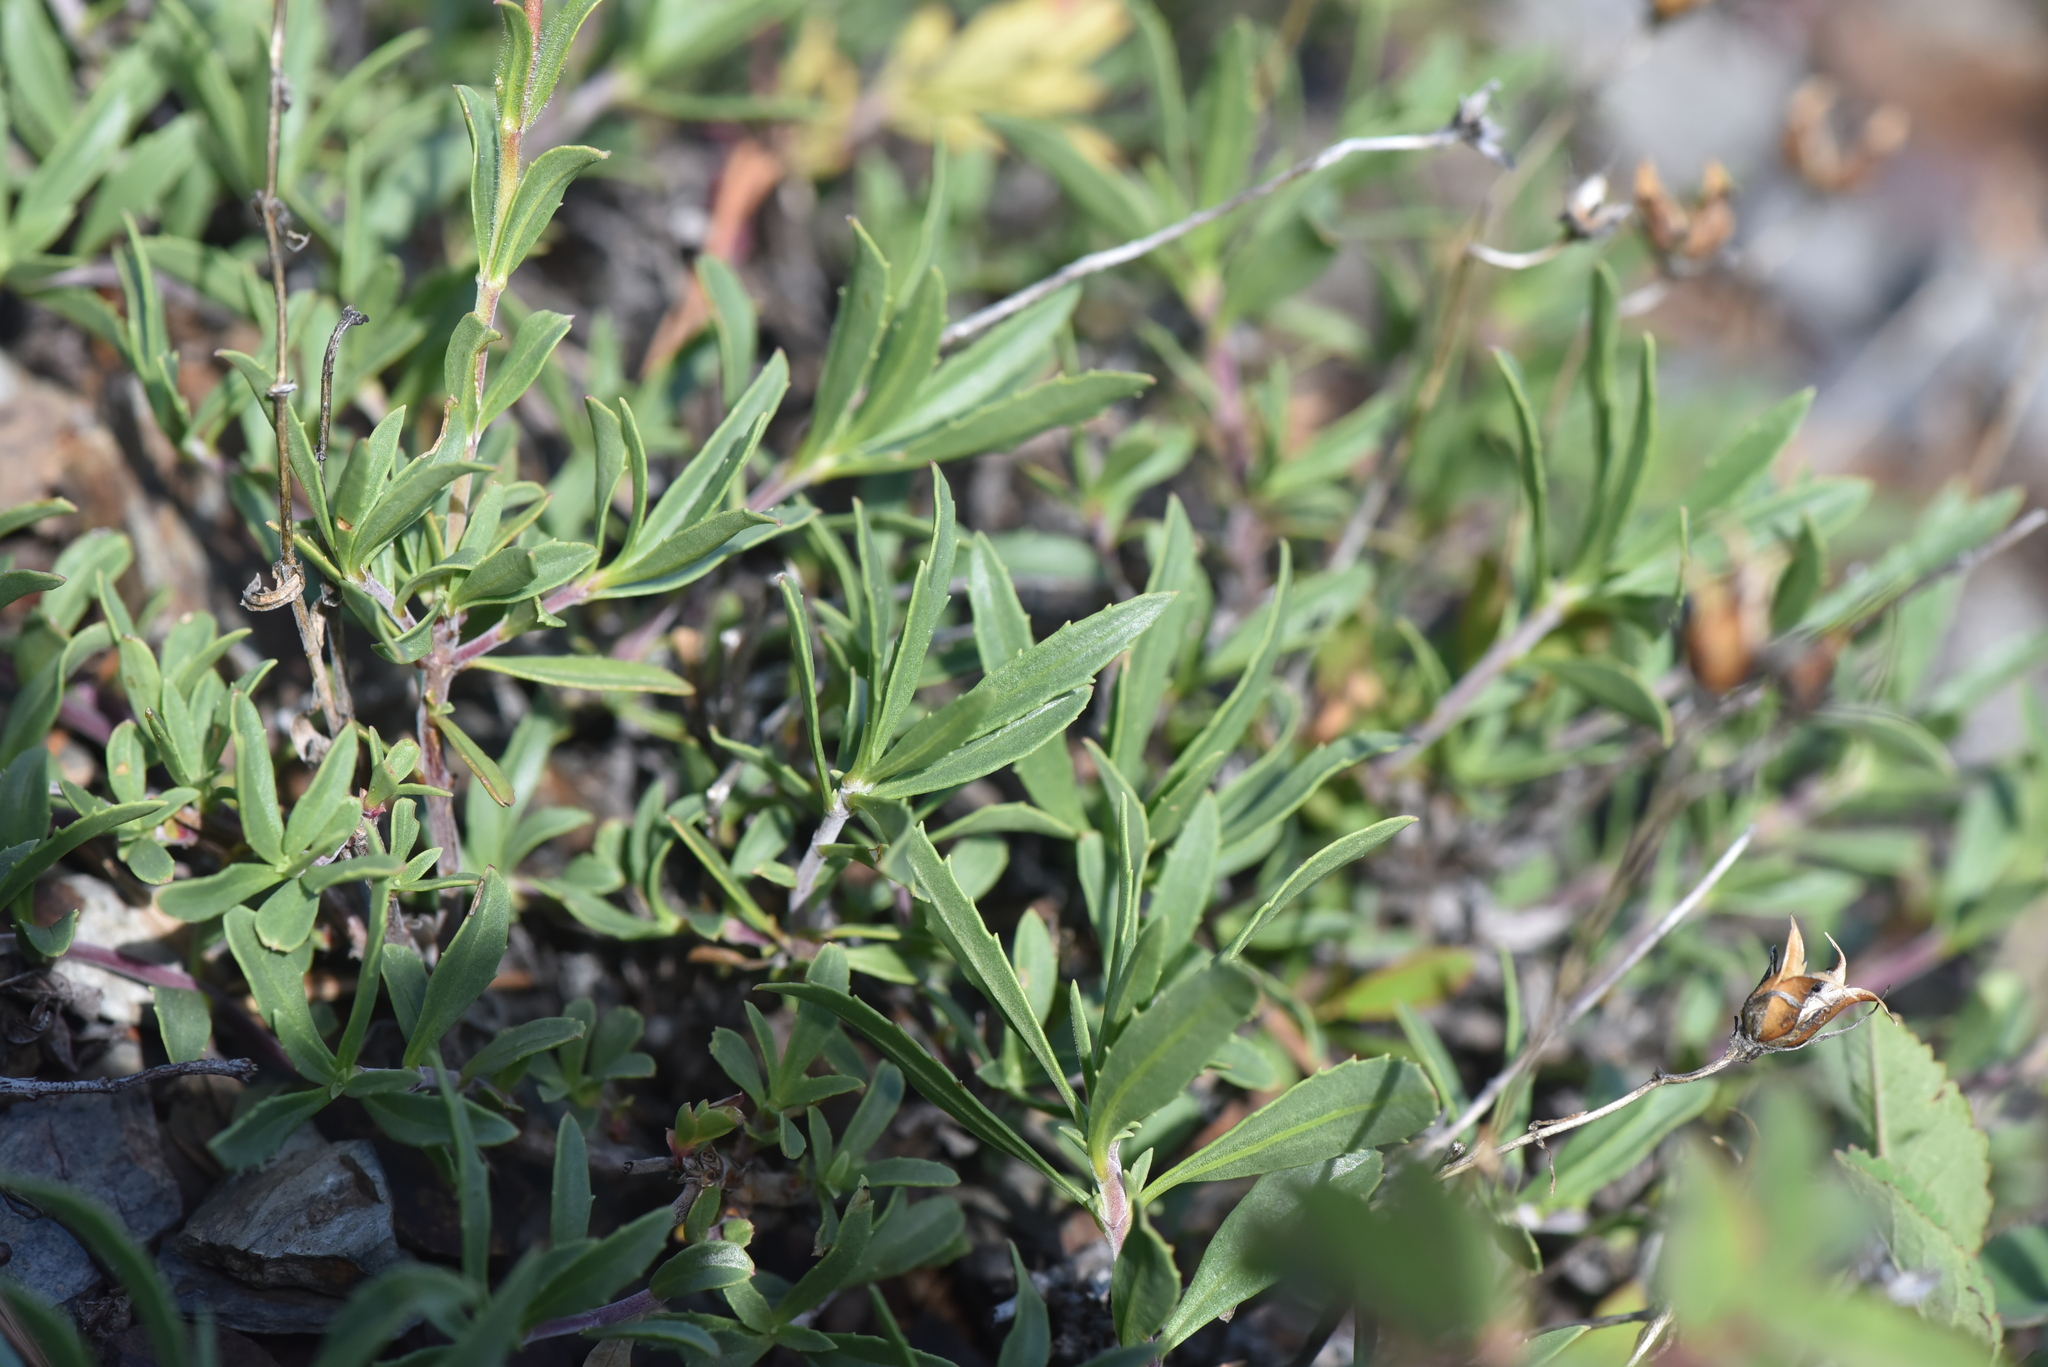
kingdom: Plantae
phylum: Tracheophyta
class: Magnoliopsida
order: Lamiales
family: Plantaginaceae
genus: Penstemon
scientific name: Penstemon fruticosus
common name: Bush penstemon
